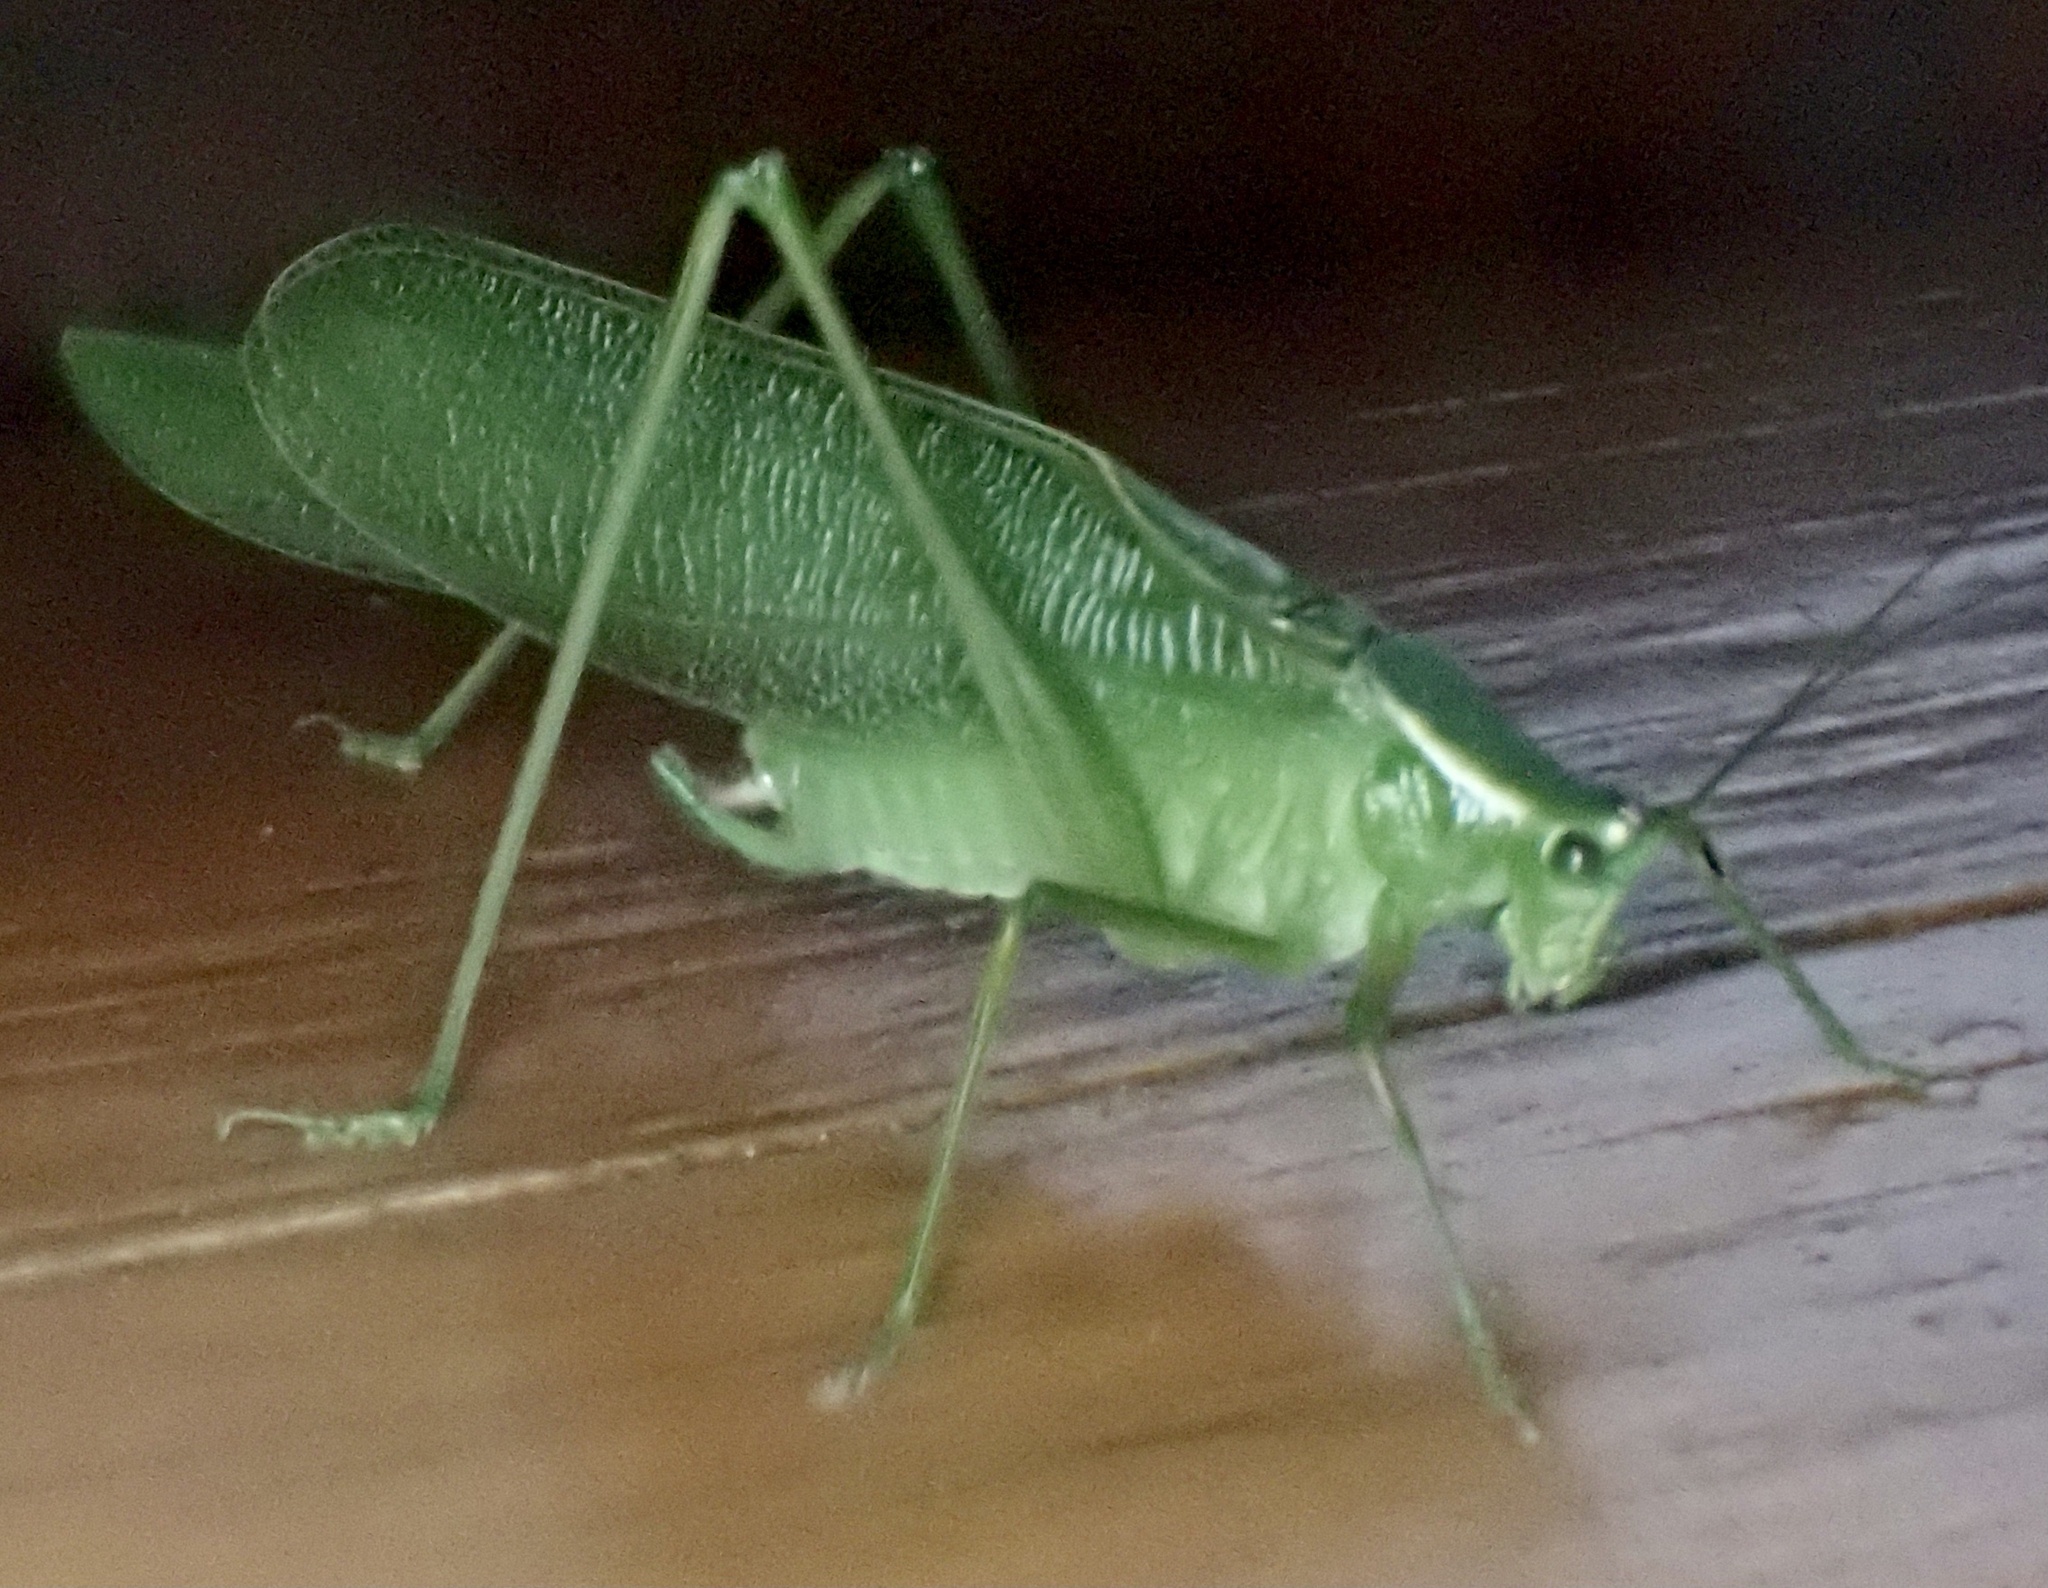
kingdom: Animalia
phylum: Arthropoda
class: Insecta
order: Orthoptera
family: Tettigoniidae
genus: Scudderia
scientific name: Scudderia septentrionalis
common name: Northern bush-katydid
